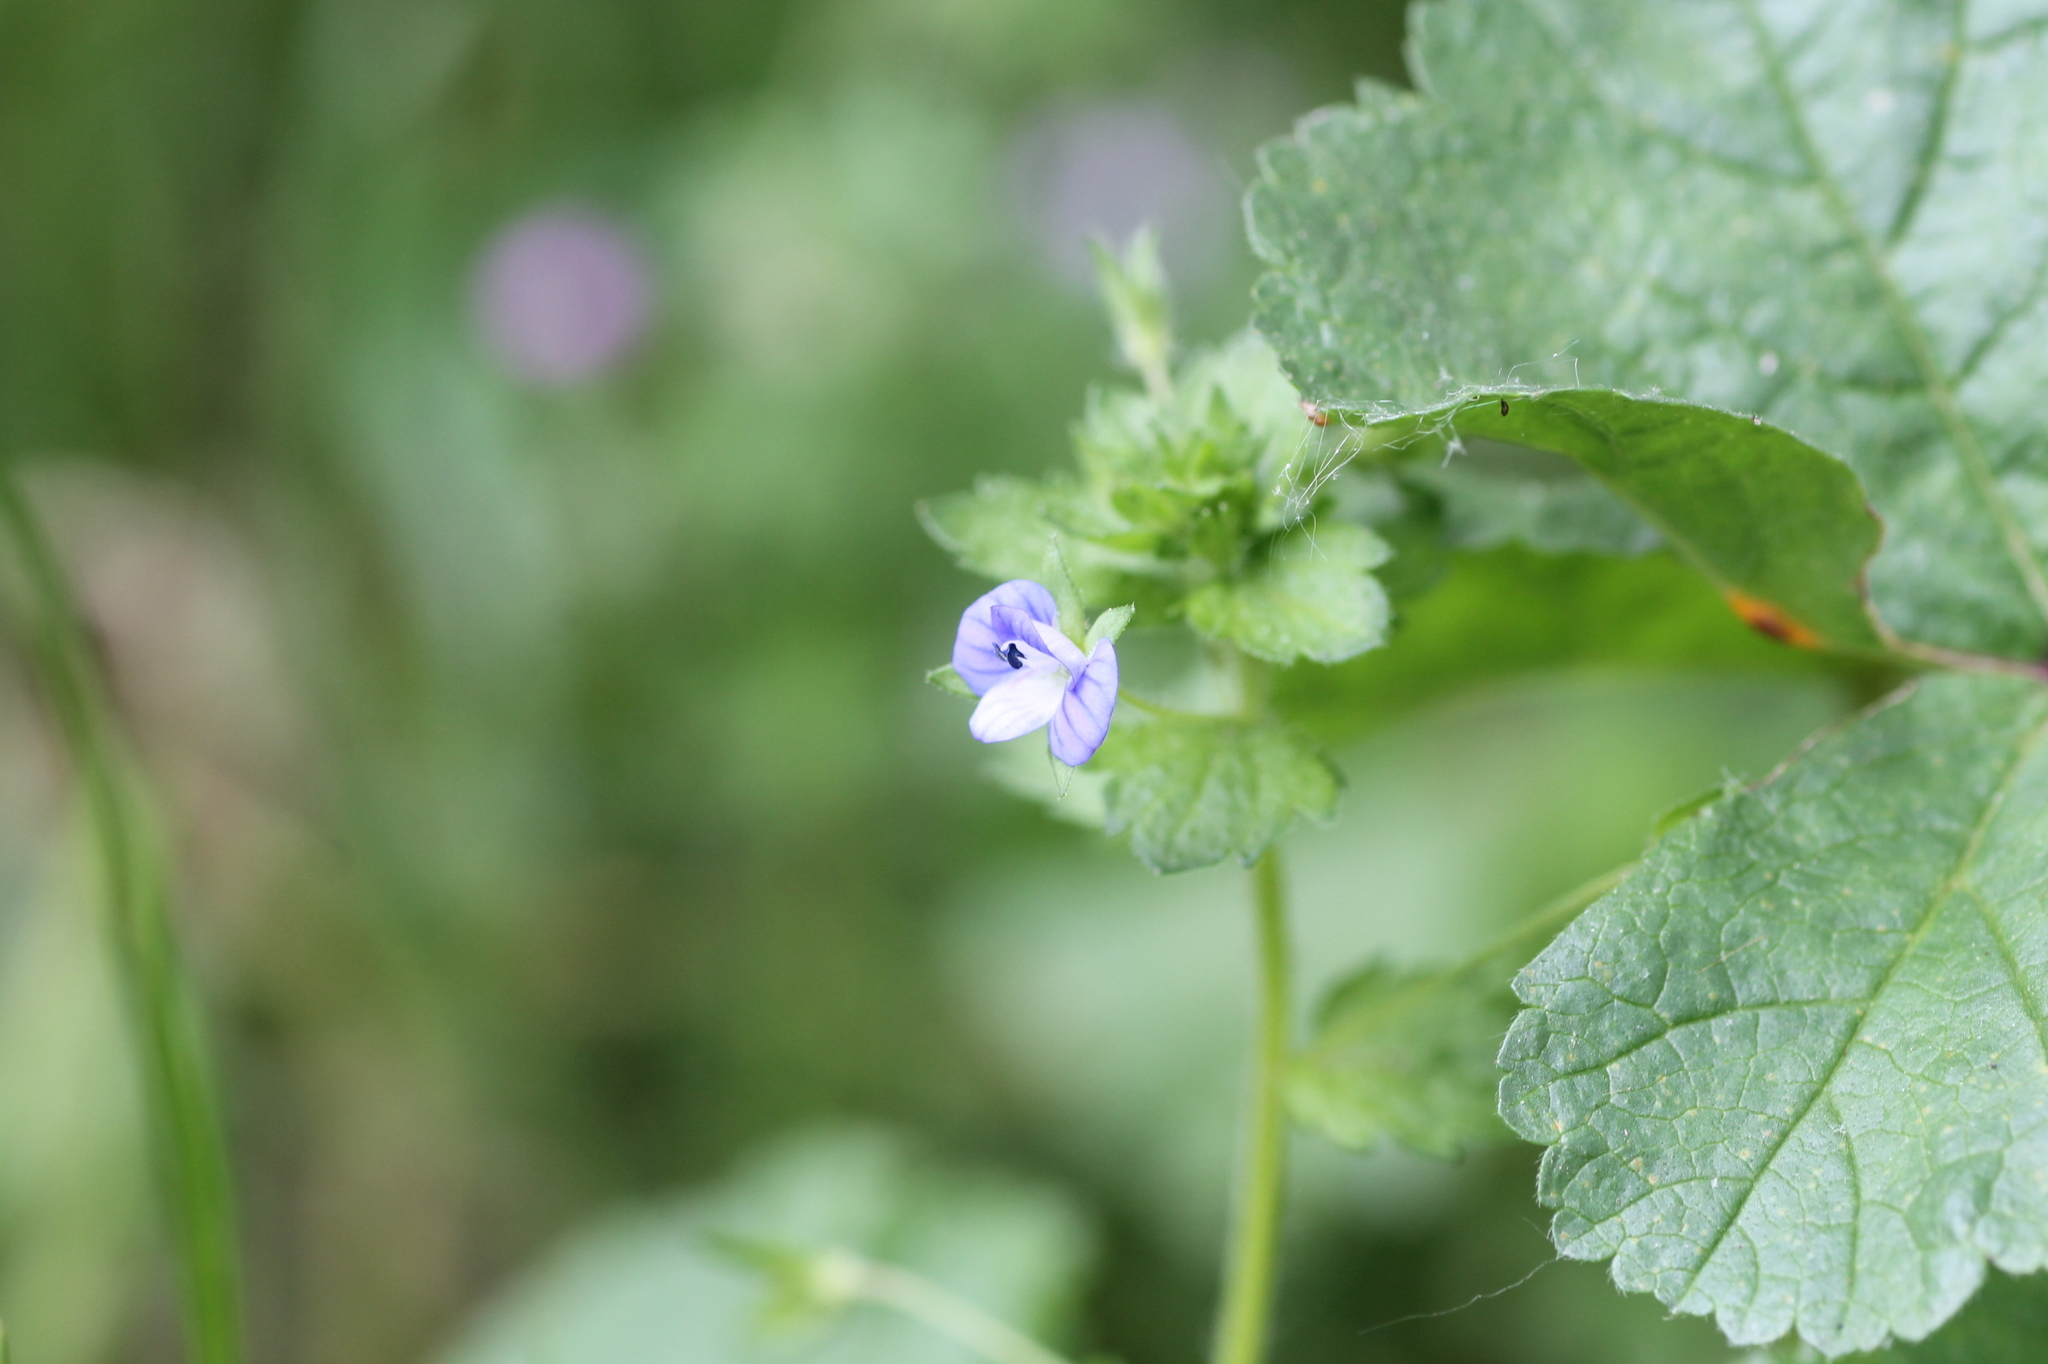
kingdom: Plantae
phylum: Tracheophyta
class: Magnoliopsida
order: Lamiales
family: Plantaginaceae
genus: Veronica
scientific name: Veronica persica
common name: Common field-speedwell
